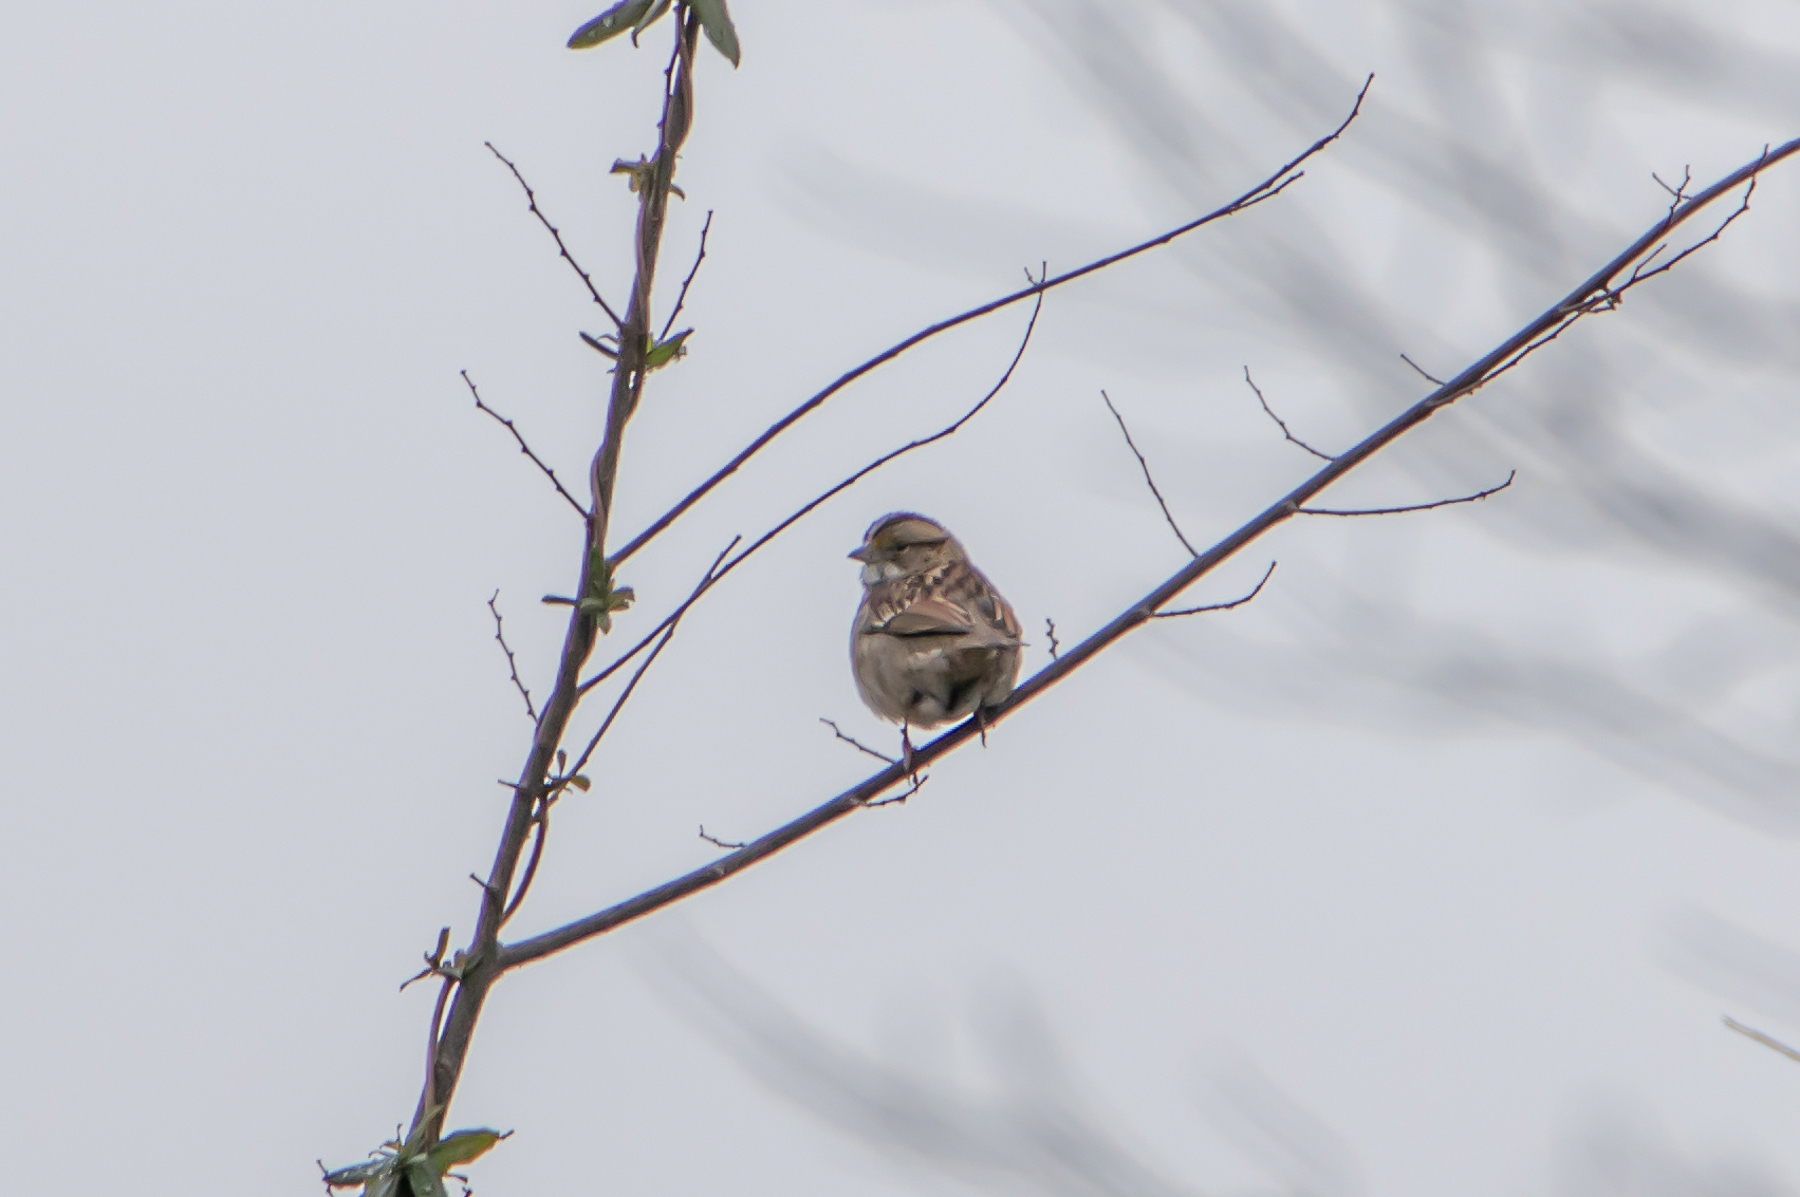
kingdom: Animalia
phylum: Chordata
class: Aves
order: Passeriformes
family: Passerellidae
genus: Zonotrichia
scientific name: Zonotrichia albicollis
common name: White-throated sparrow
